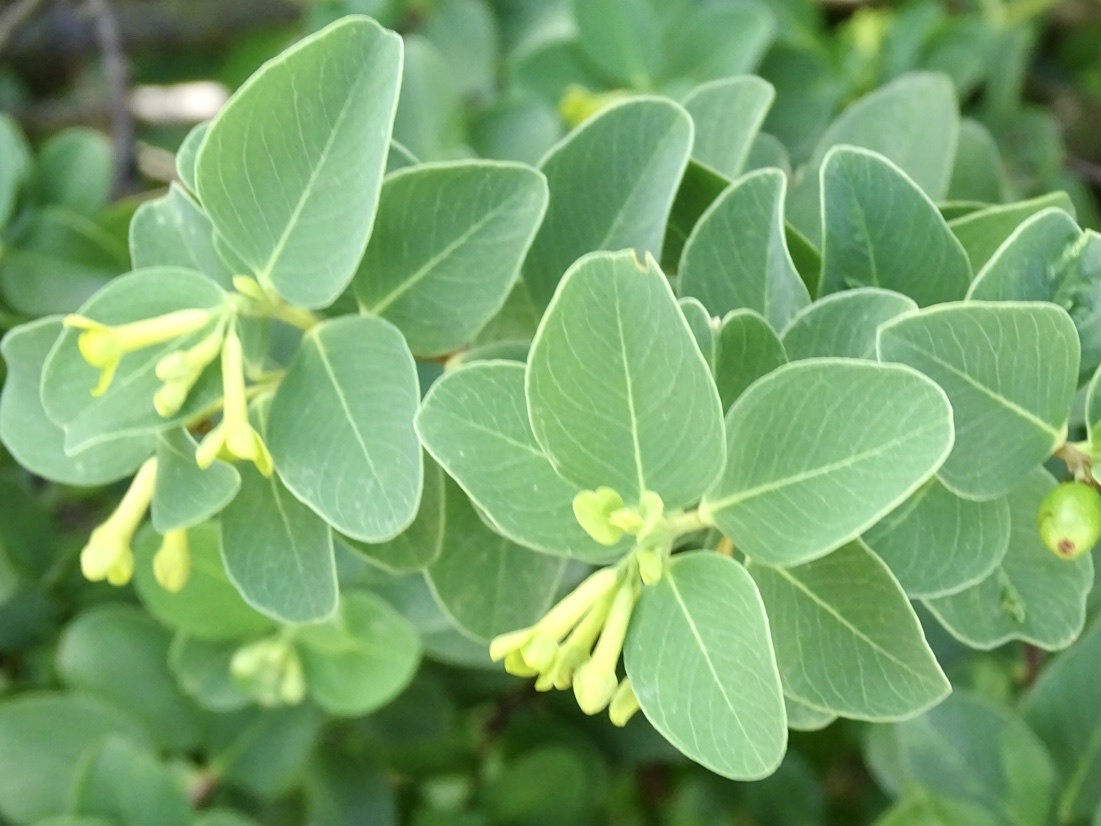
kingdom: Plantae
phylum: Tracheophyta
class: Magnoliopsida
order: Malvales
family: Thymelaeaceae
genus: Wikstroemia
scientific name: Wikstroemia indica
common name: Tiebush
